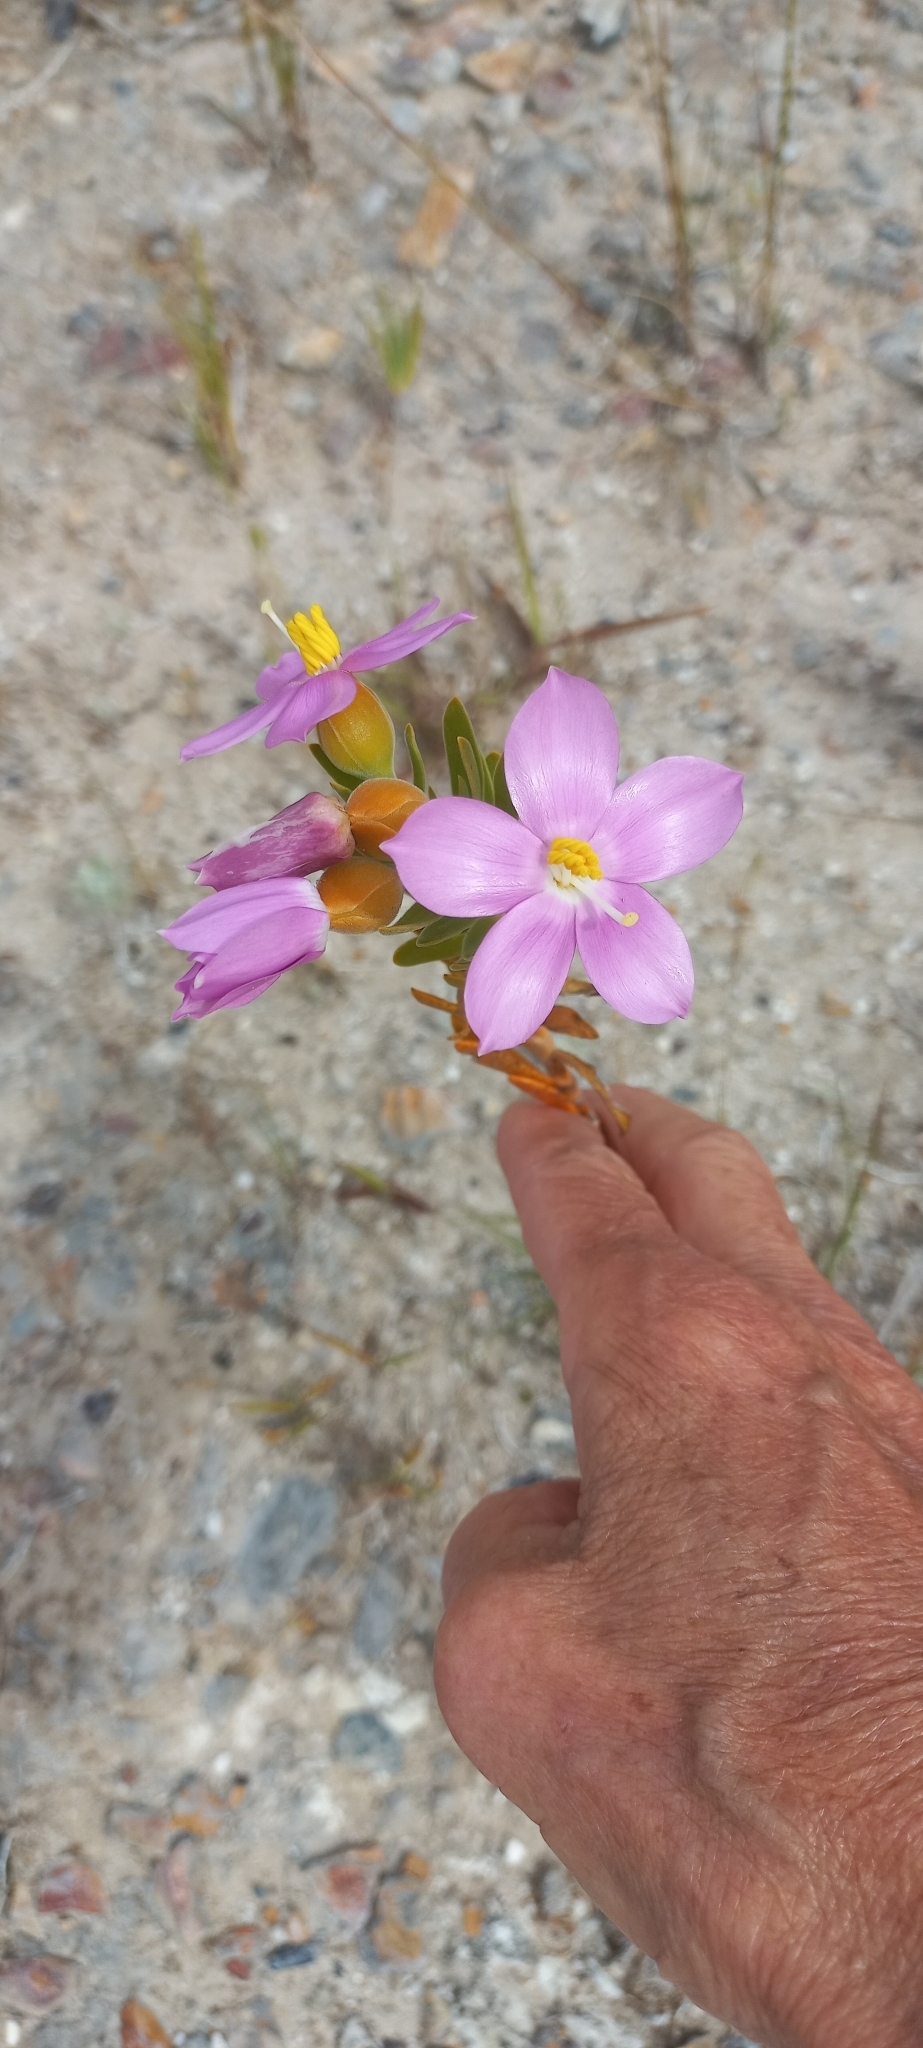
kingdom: Plantae
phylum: Tracheophyta
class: Magnoliopsida
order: Gentianales
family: Gentianaceae
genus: Orphium
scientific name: Orphium frutescens
